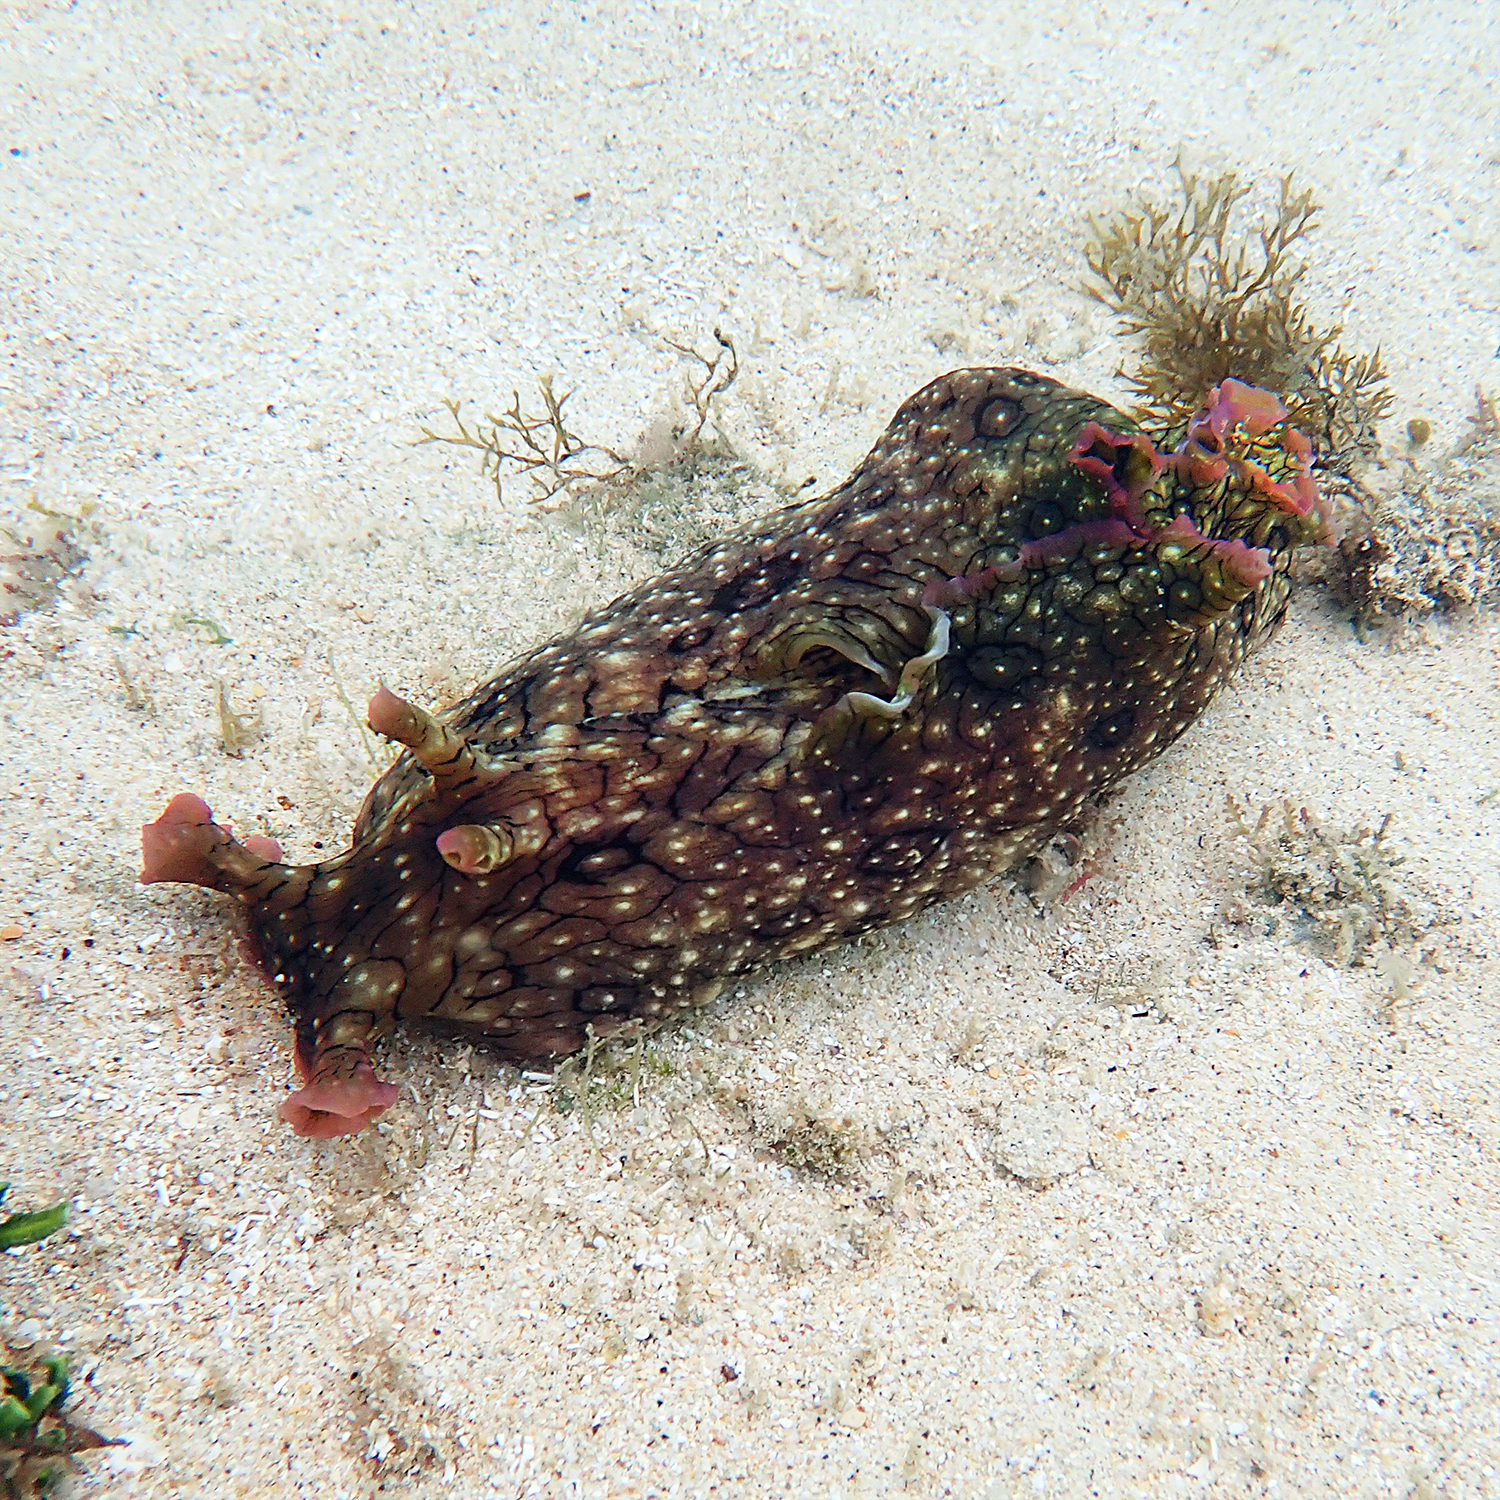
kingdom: Animalia
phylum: Mollusca
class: Gastropoda
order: Aplysiida
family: Aplysiidae
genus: Aplysia
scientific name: Aplysia argus
